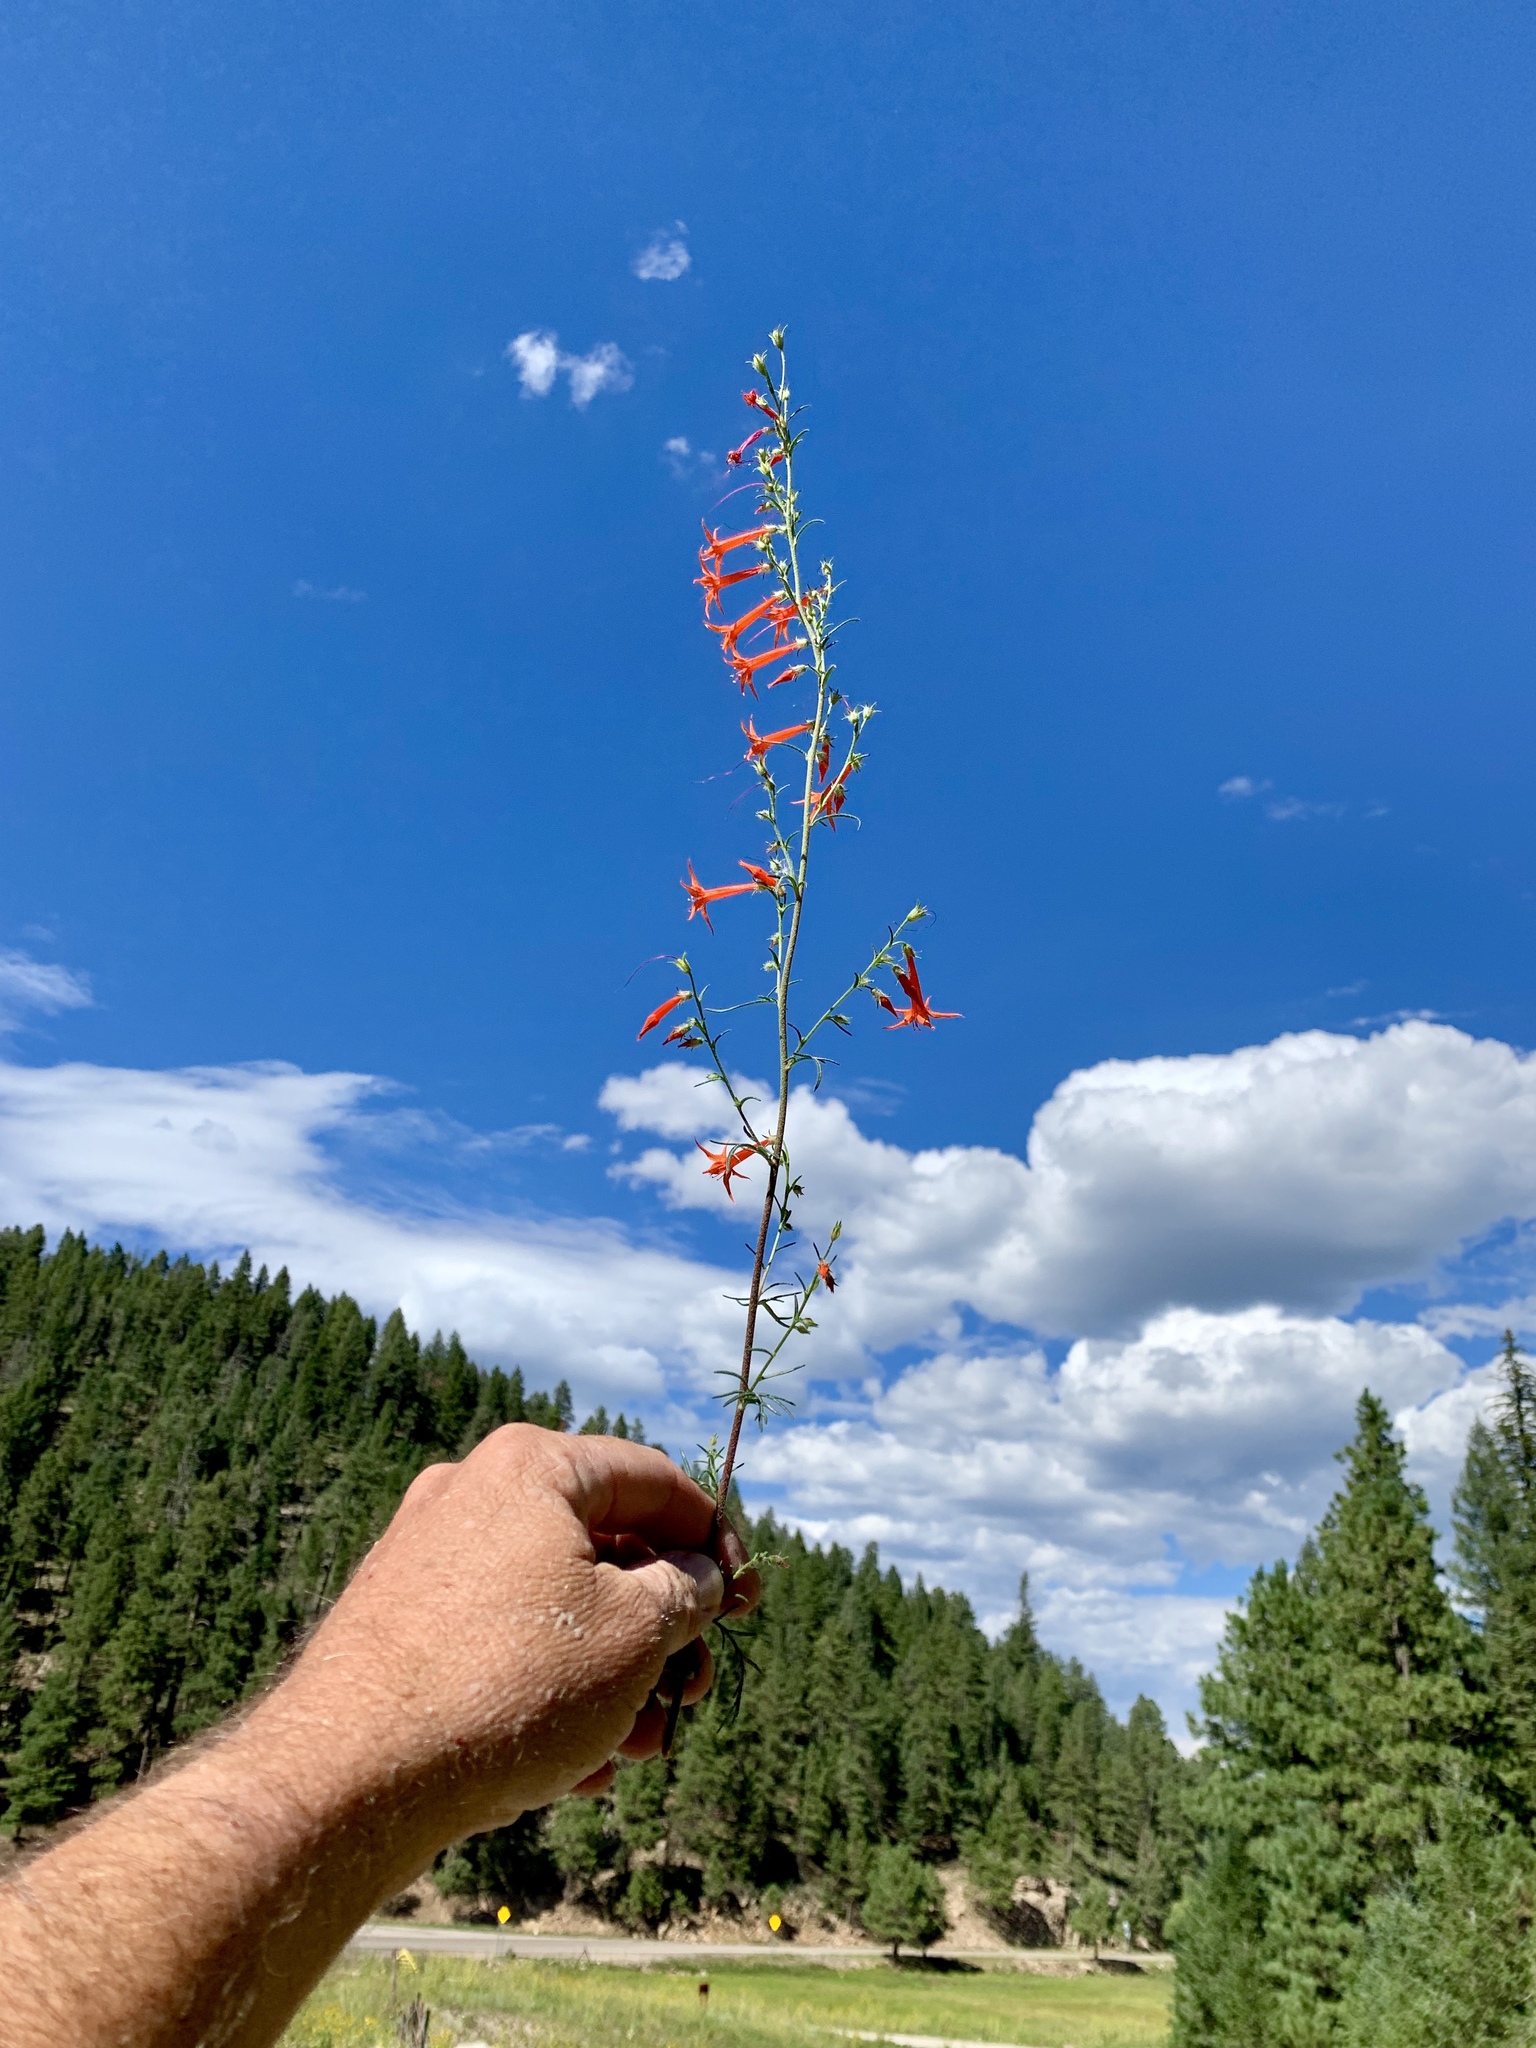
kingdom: Plantae
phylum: Tracheophyta
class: Magnoliopsida
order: Ericales
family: Polemoniaceae
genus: Ipomopsis
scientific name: Ipomopsis aggregata
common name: Scarlet gilia
